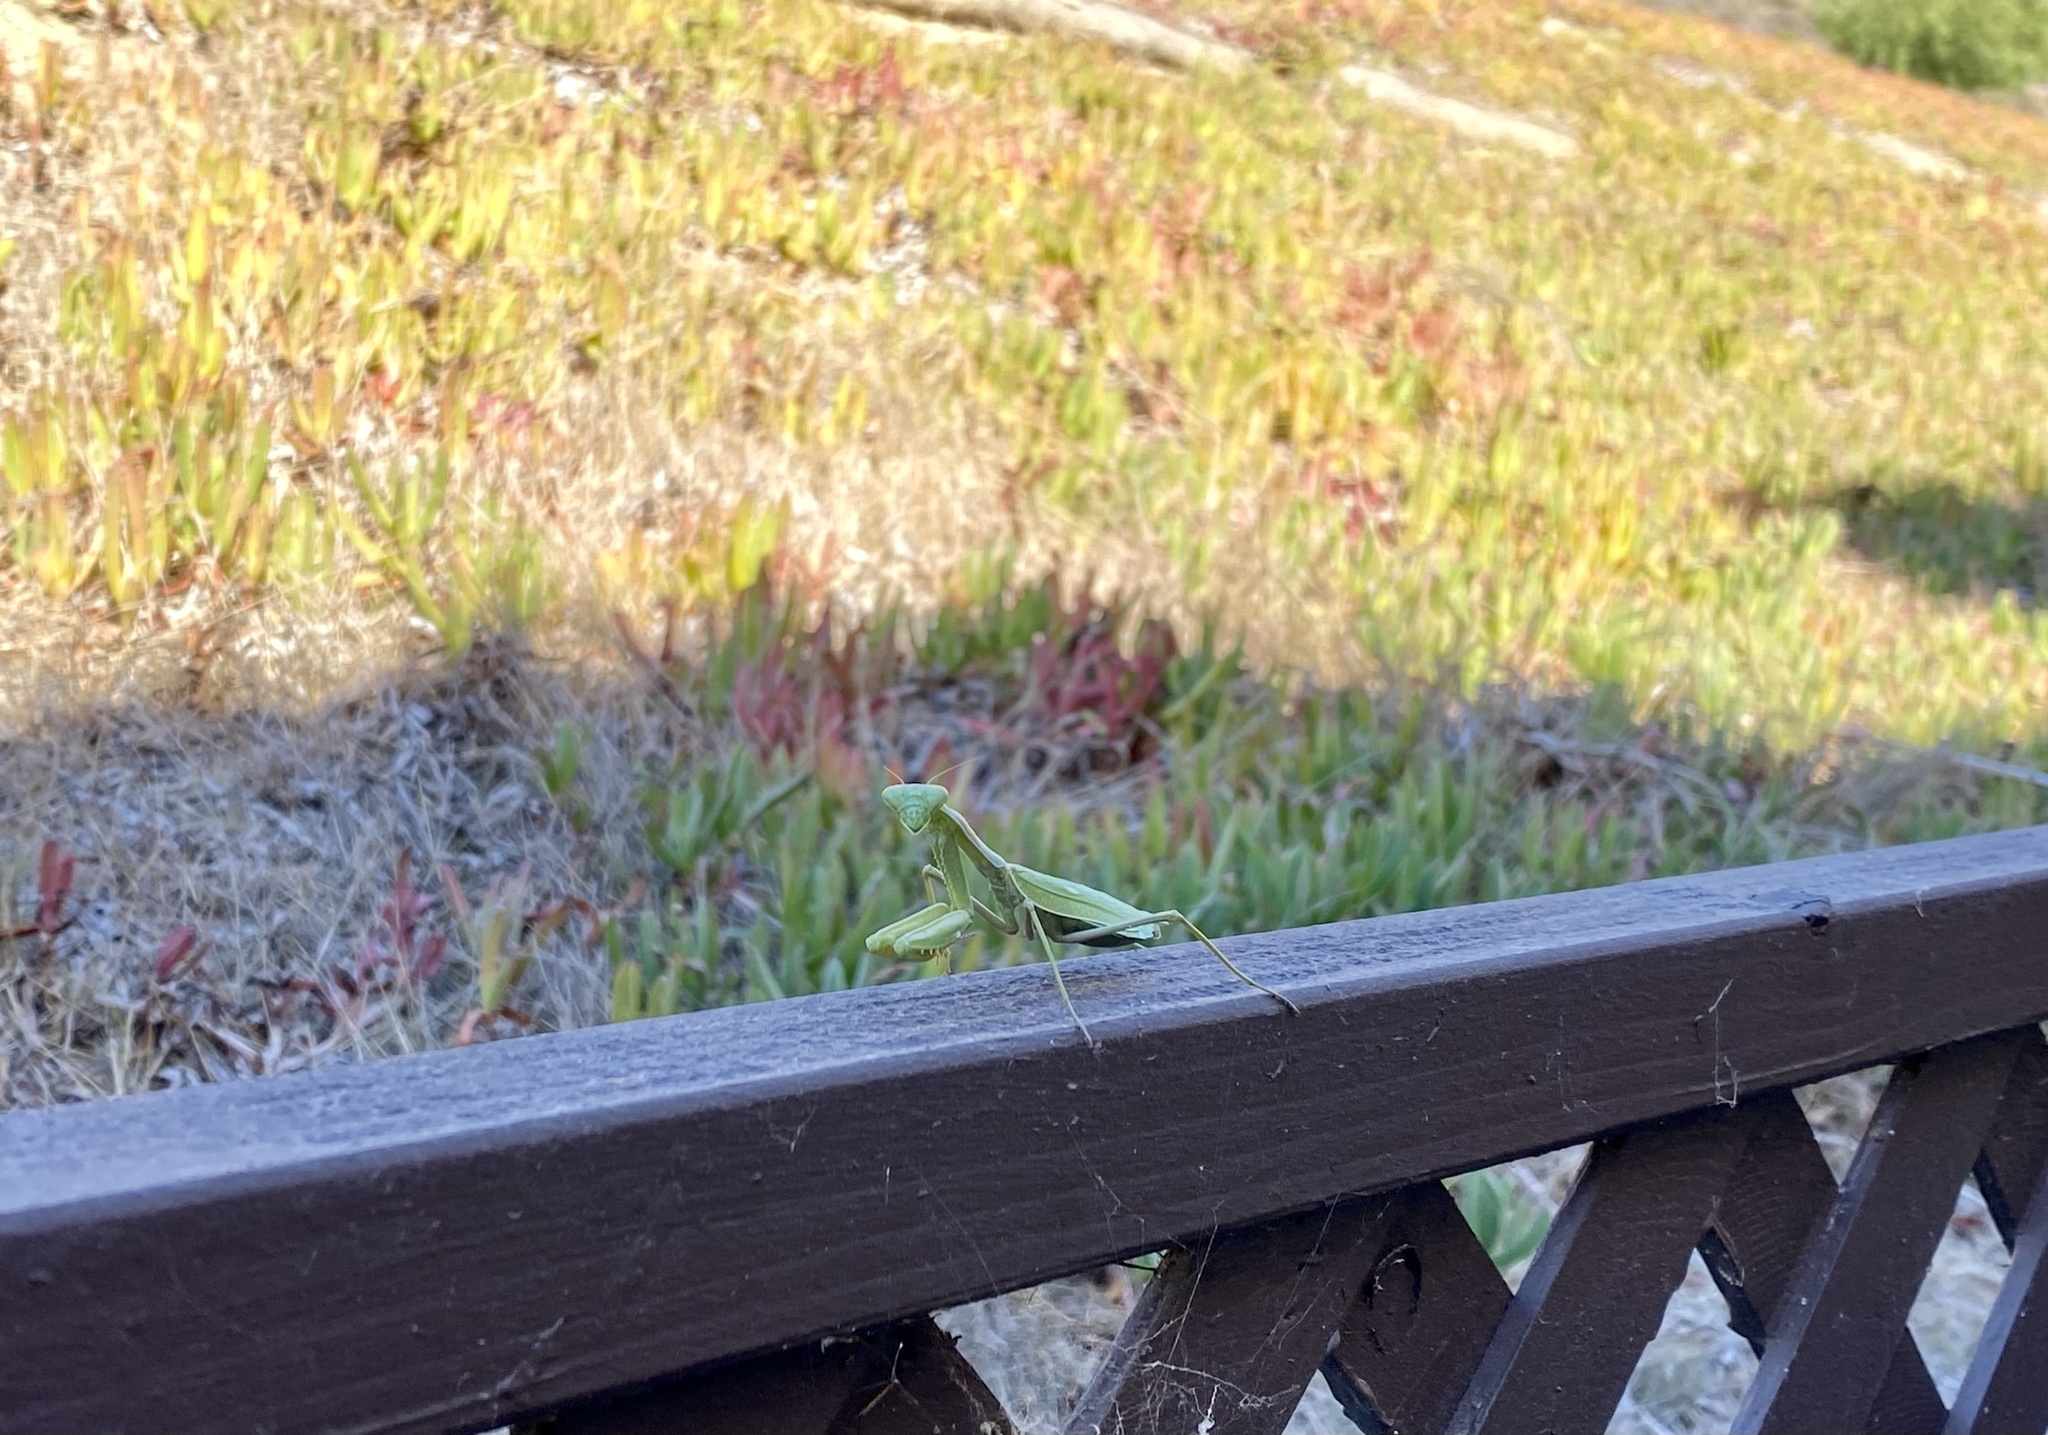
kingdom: Animalia
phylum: Arthropoda
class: Insecta
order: Mantodea
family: Mantidae
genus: Stagmomantis
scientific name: Stagmomantis limbata
